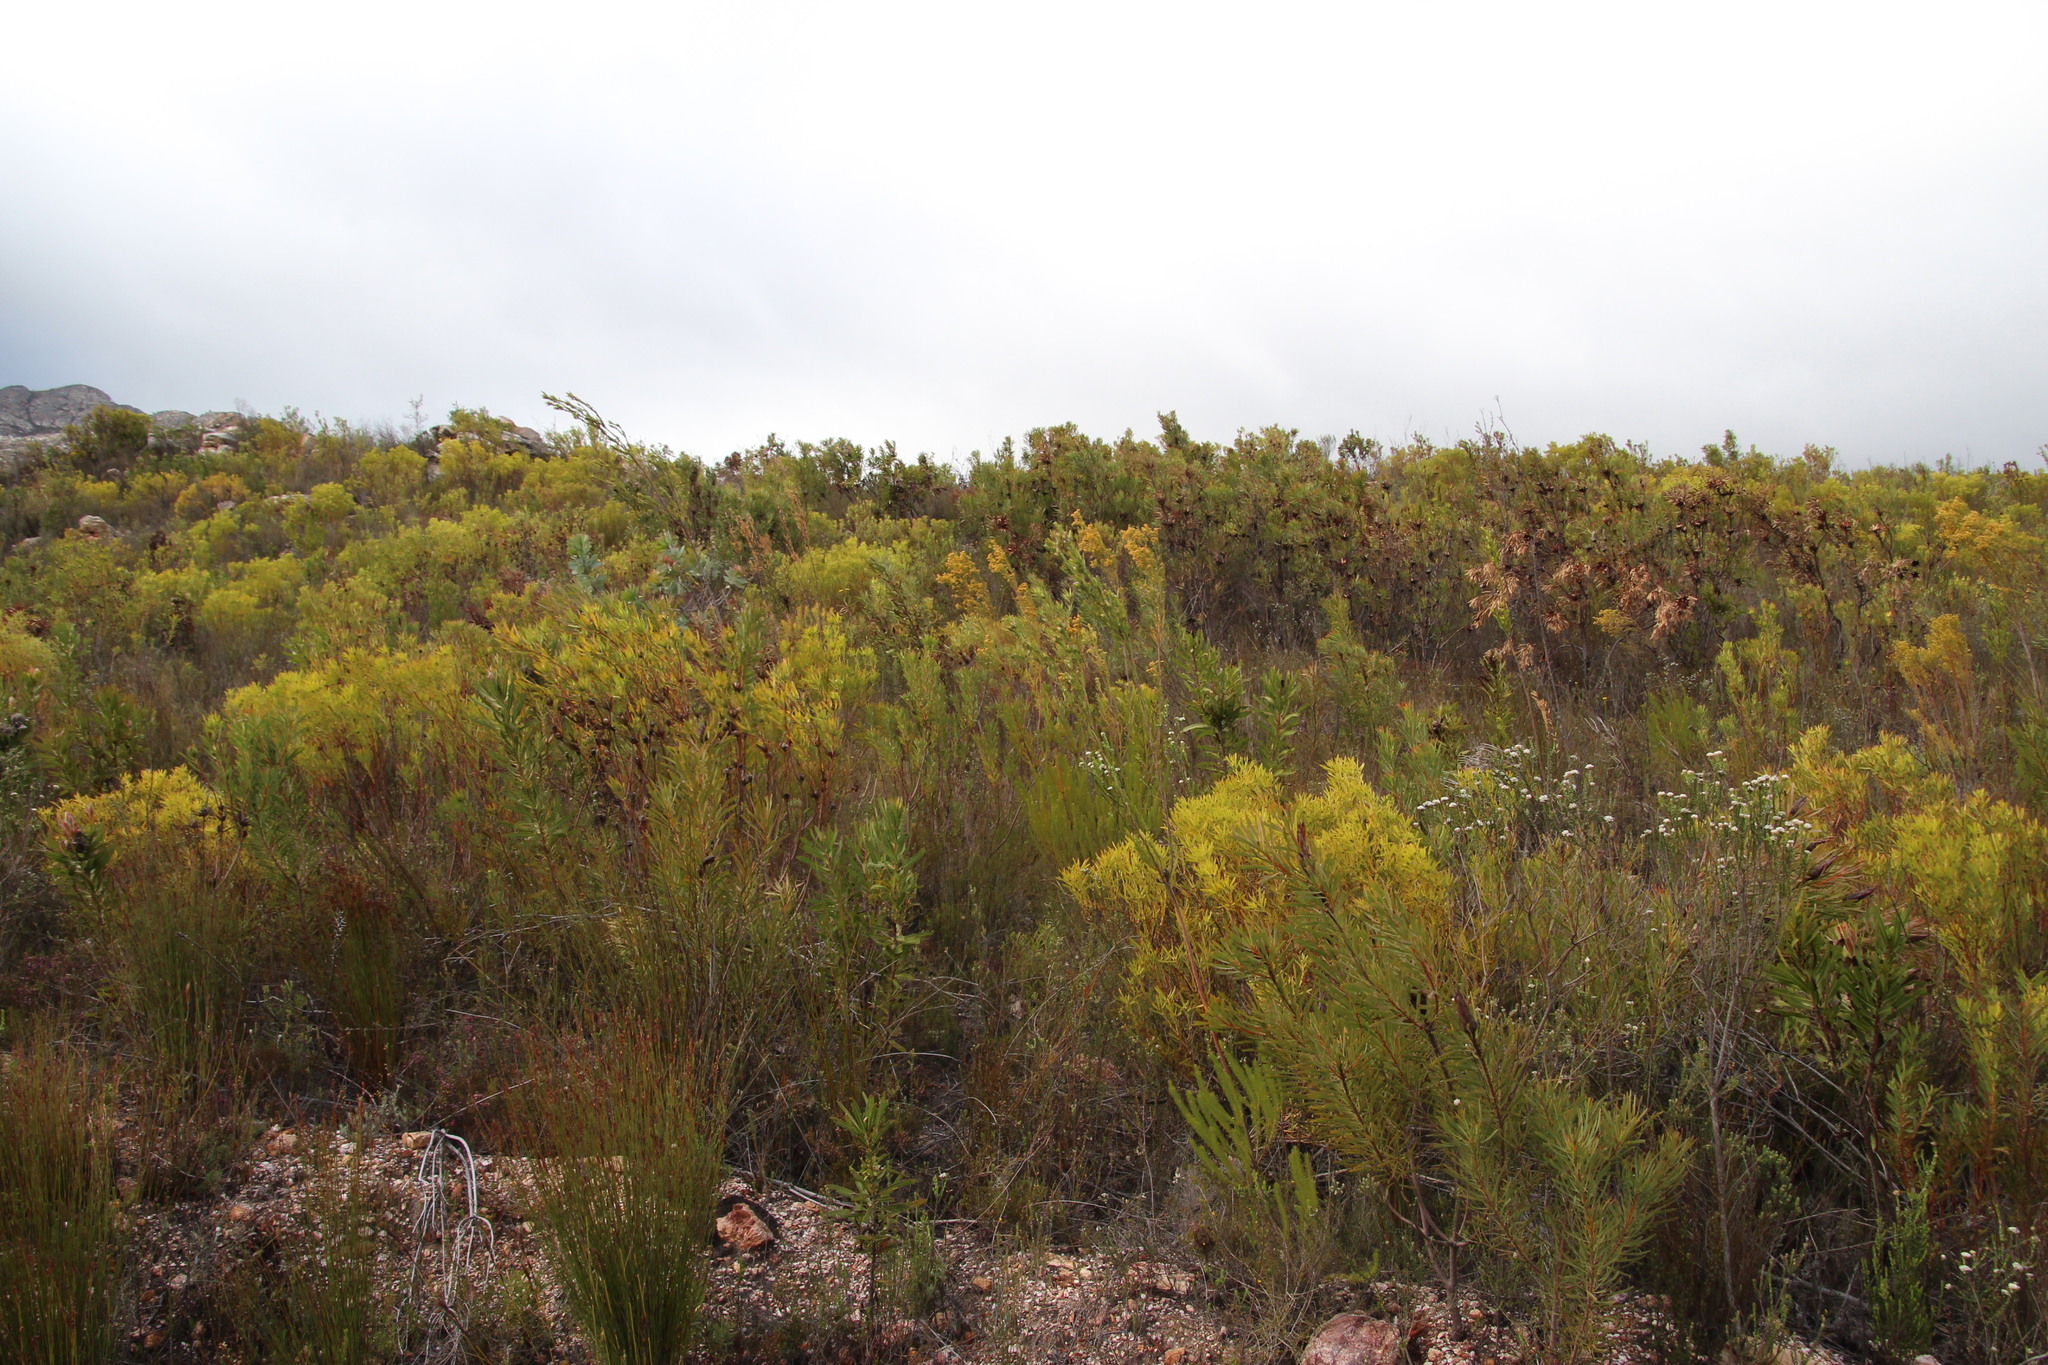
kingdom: Plantae
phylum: Tracheophyta
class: Magnoliopsida
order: Proteales
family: Proteaceae
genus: Leucadendron
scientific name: Leucadendron salignum
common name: Common sunshine conebush
